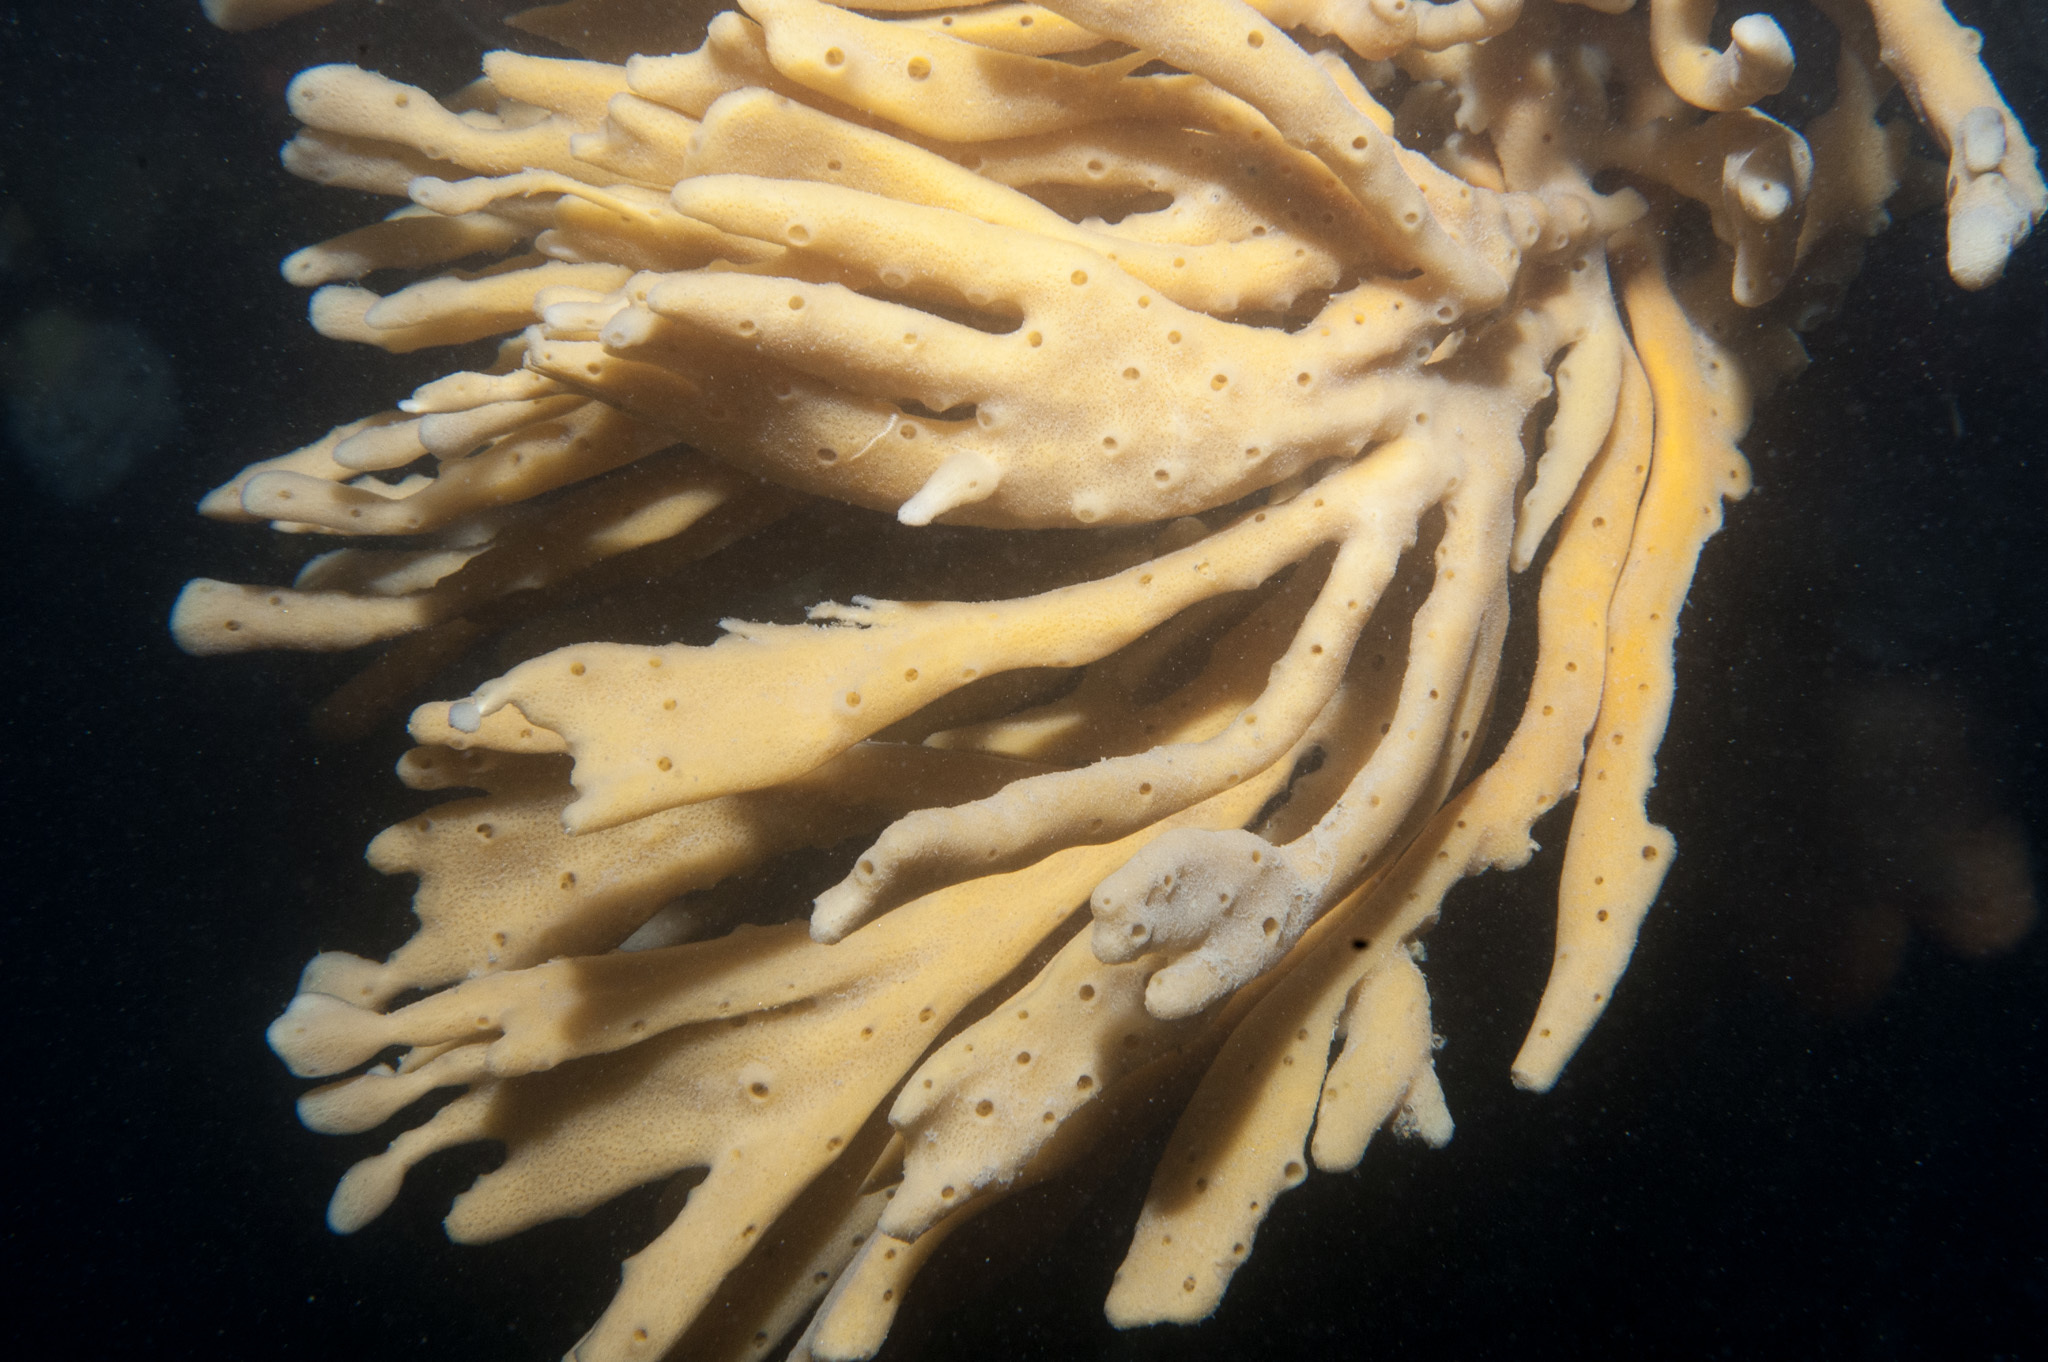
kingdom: Animalia
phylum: Porifera
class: Demospongiae
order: Haplosclerida
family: Chalinidae
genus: Haliclona
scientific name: Haliclona oculata
